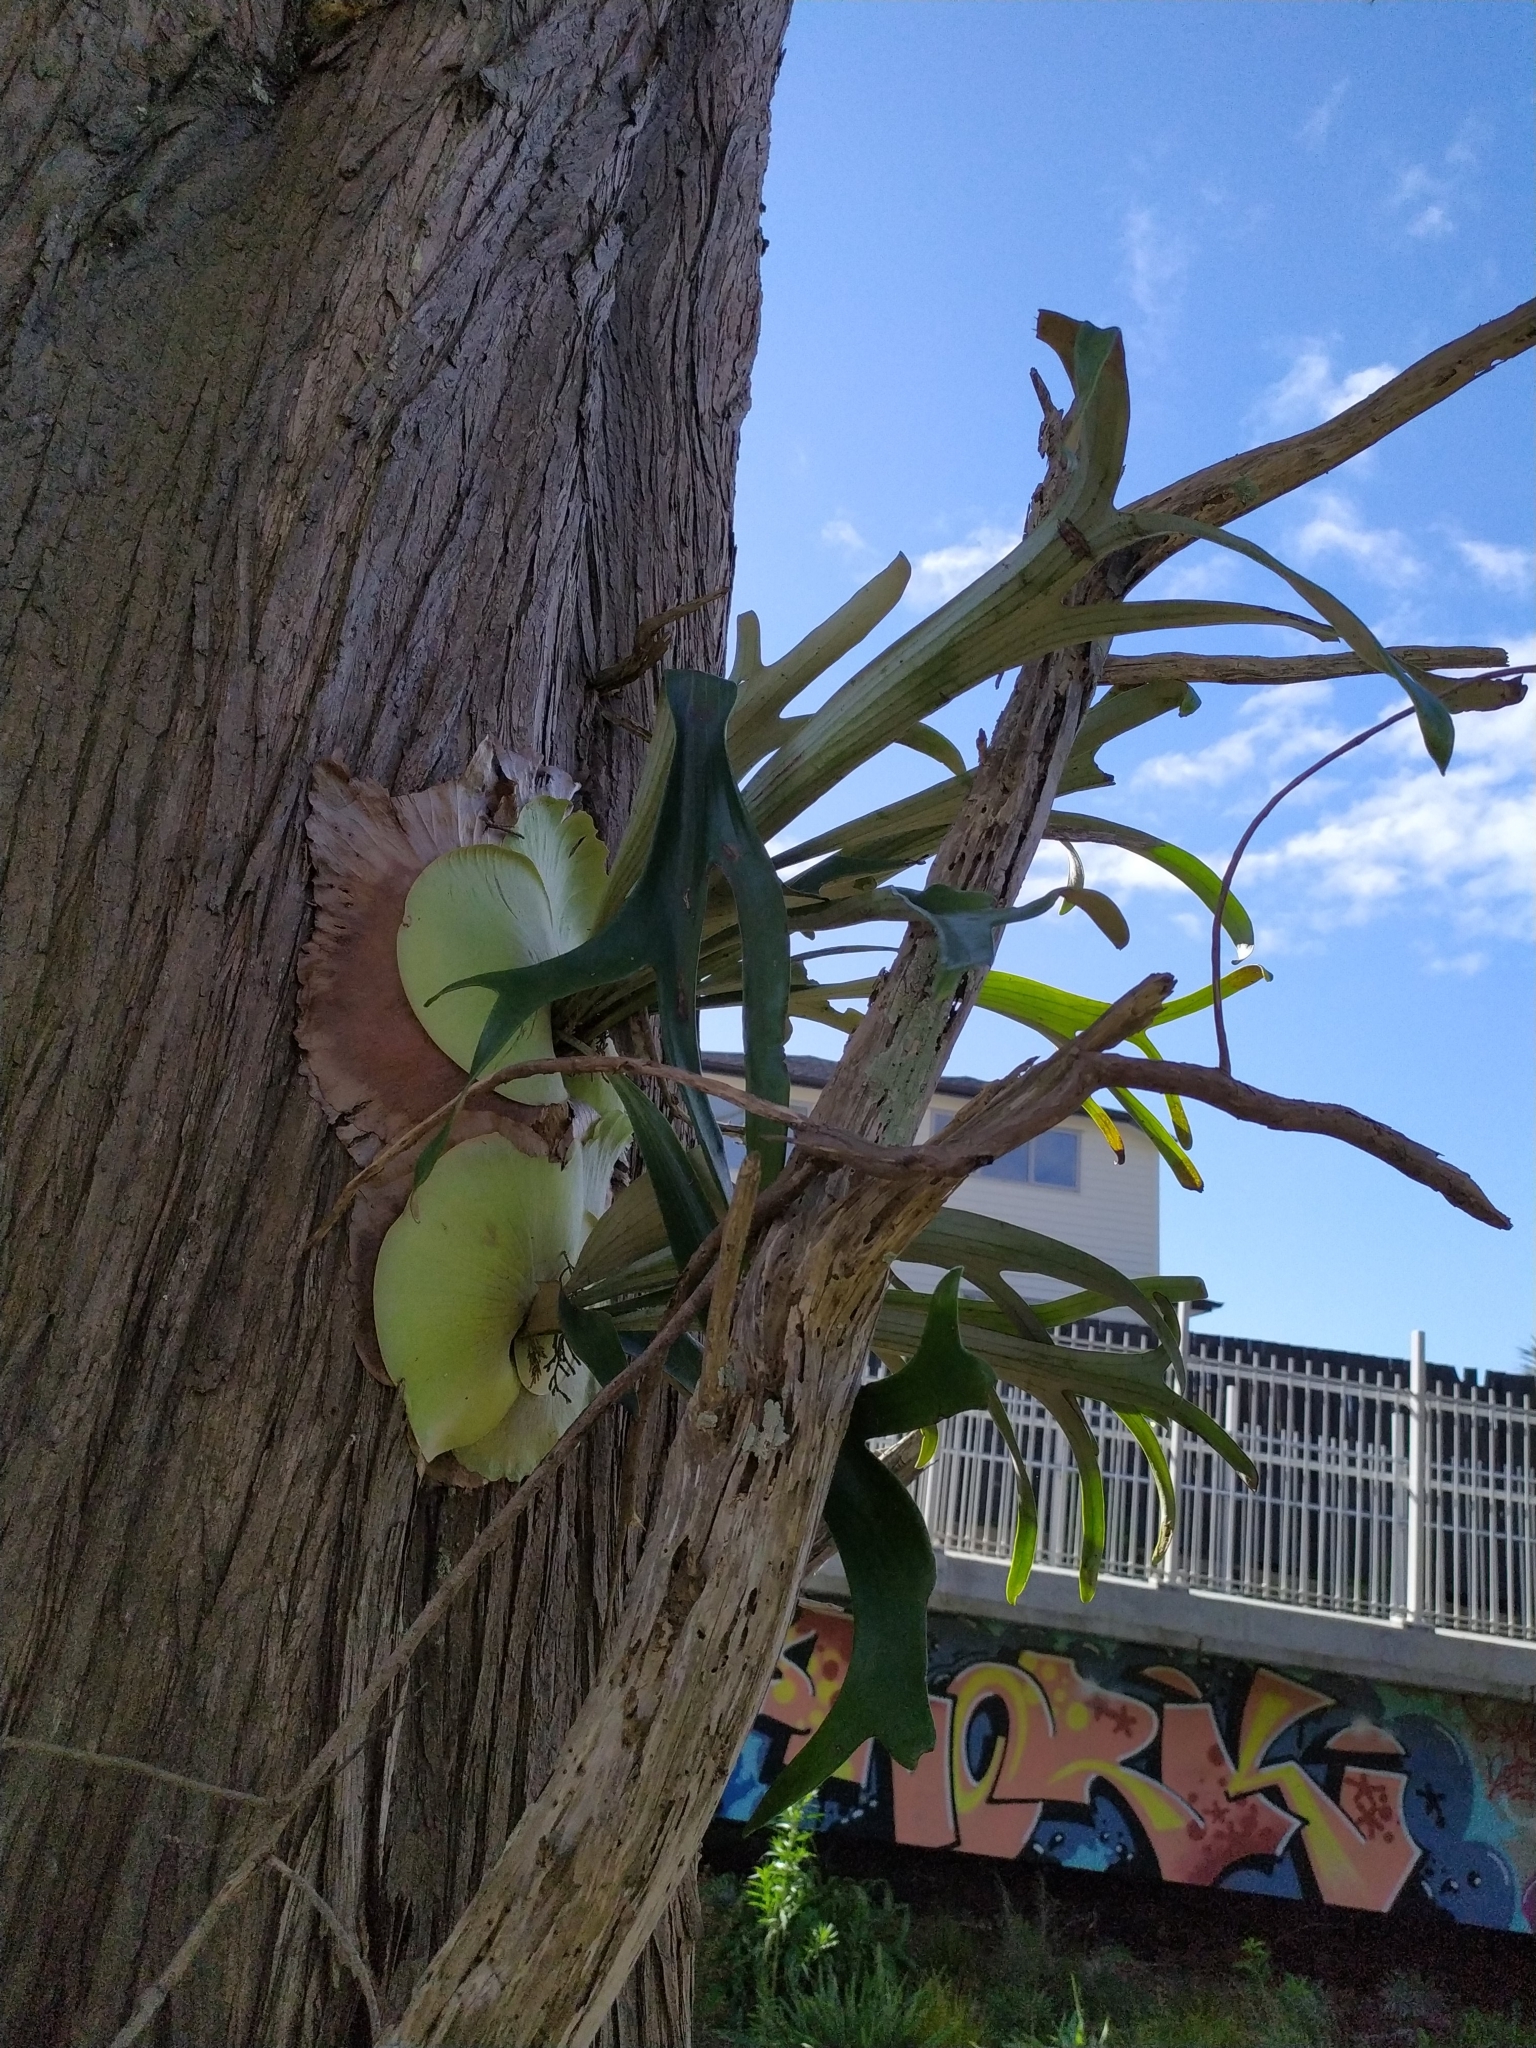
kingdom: Plantae
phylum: Tracheophyta
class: Polypodiopsida
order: Polypodiales
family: Polypodiaceae
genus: Platycerium
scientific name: Platycerium bifurcatum
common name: Elkhorn fern
